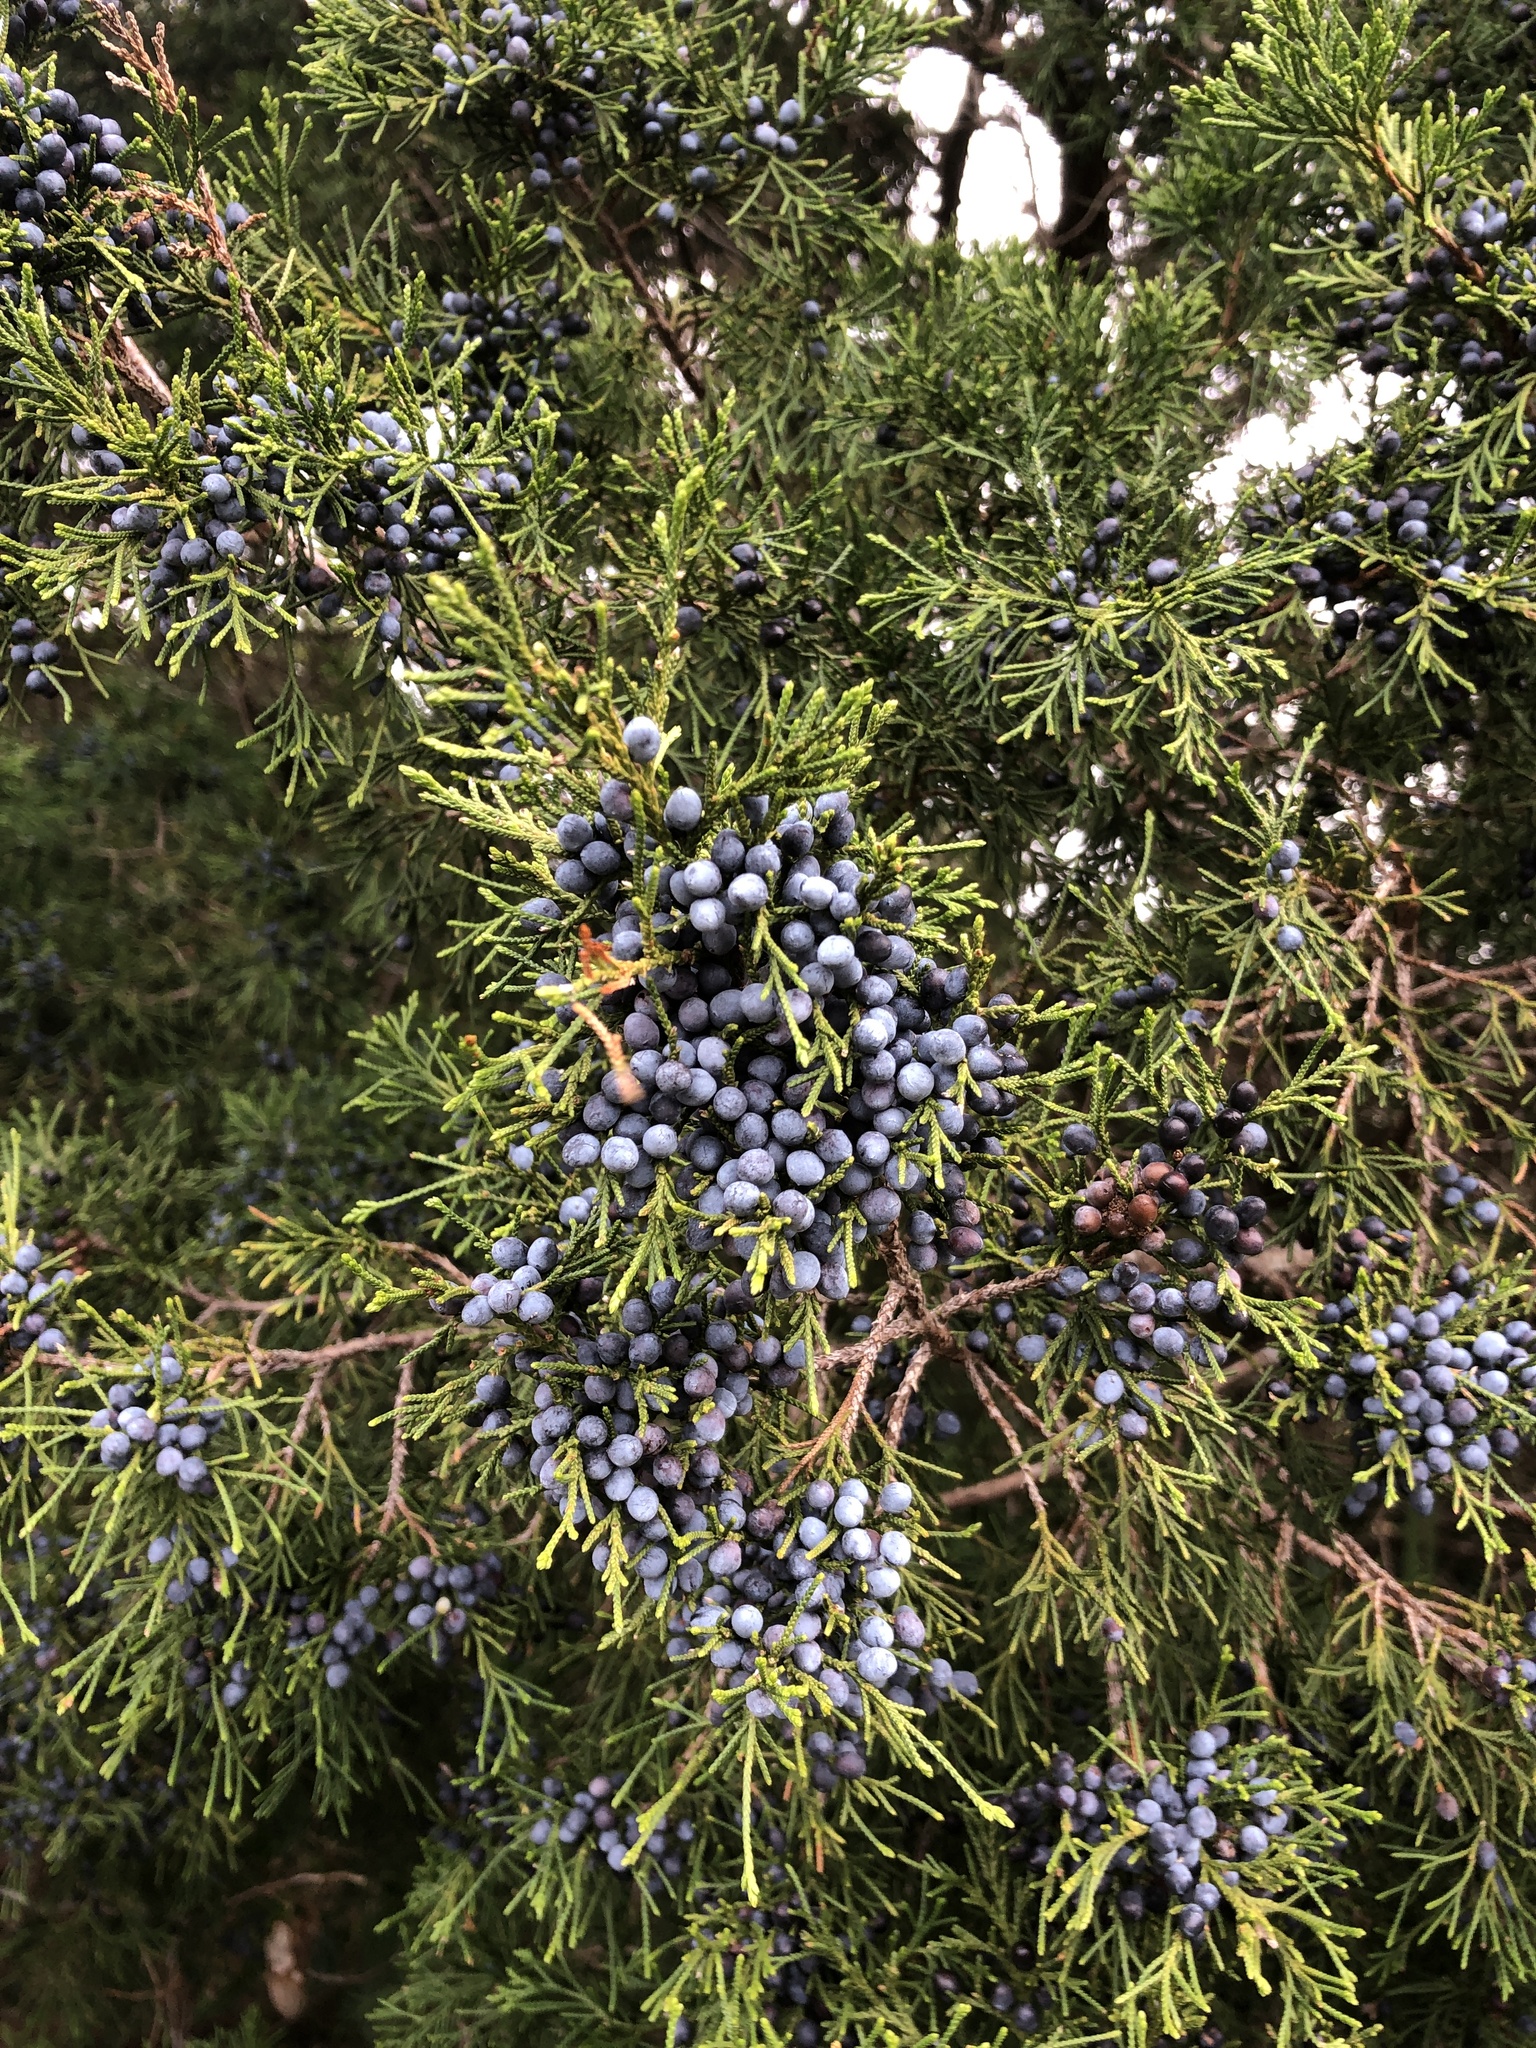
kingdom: Plantae
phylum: Tracheophyta
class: Pinopsida
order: Pinales
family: Cupressaceae
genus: Juniperus
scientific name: Juniperus virginiana
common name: Red juniper
